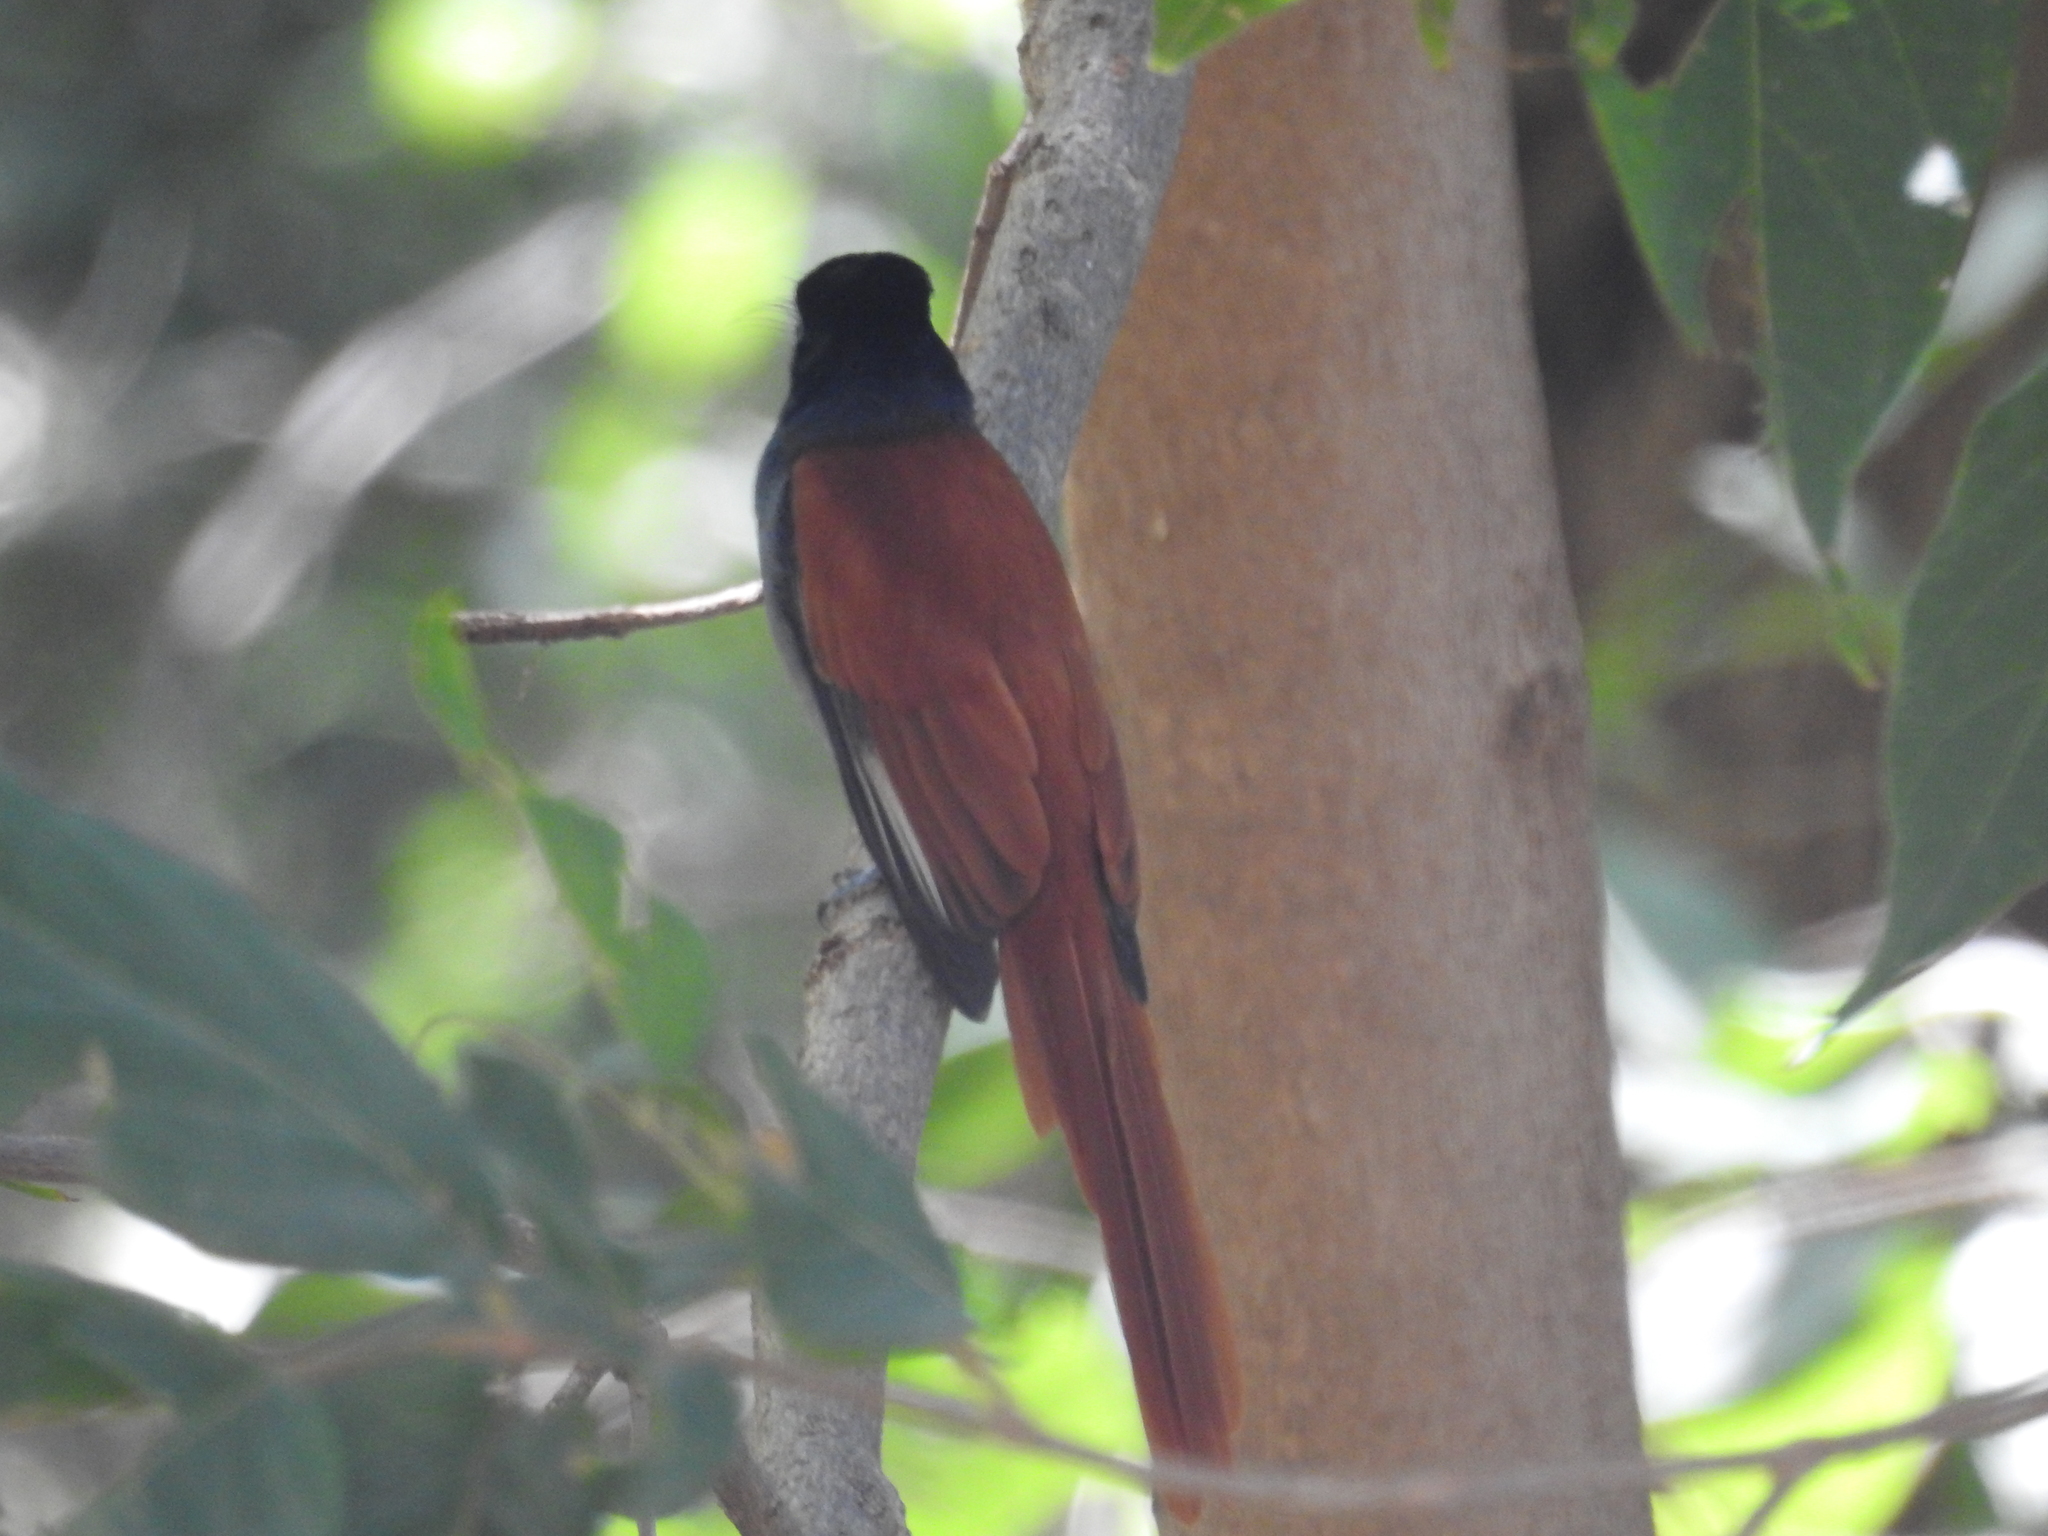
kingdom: Animalia
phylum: Chordata
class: Aves
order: Passeriformes
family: Monarchidae
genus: Terpsiphone
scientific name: Terpsiphone viridis
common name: African paradise flycatcher
